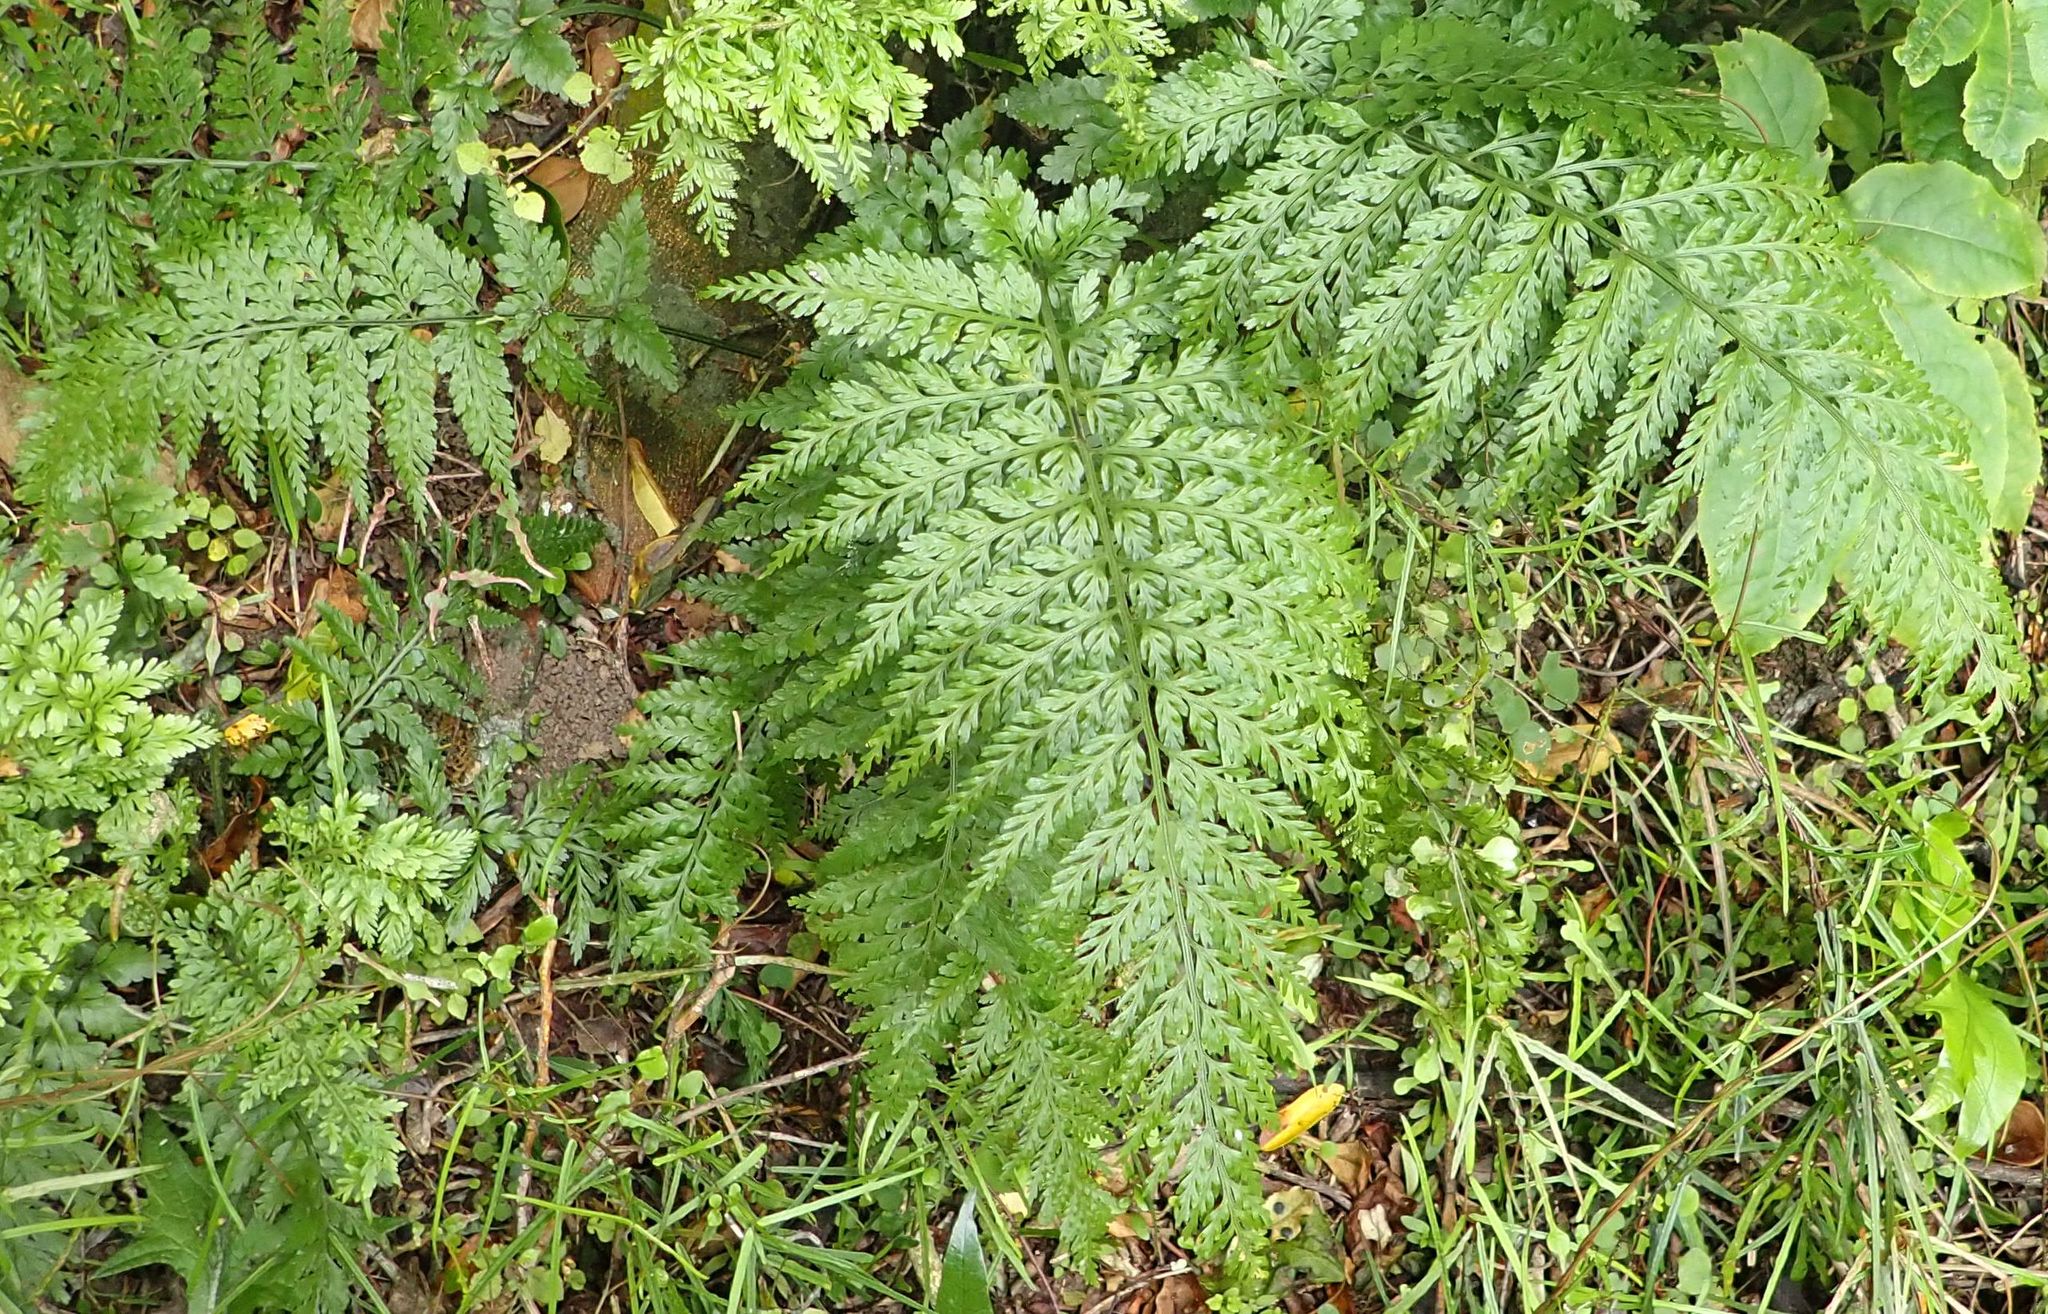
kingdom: Plantae
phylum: Tracheophyta
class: Polypodiopsida
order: Polypodiales
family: Aspleniaceae
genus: Asplenium
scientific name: Asplenium
